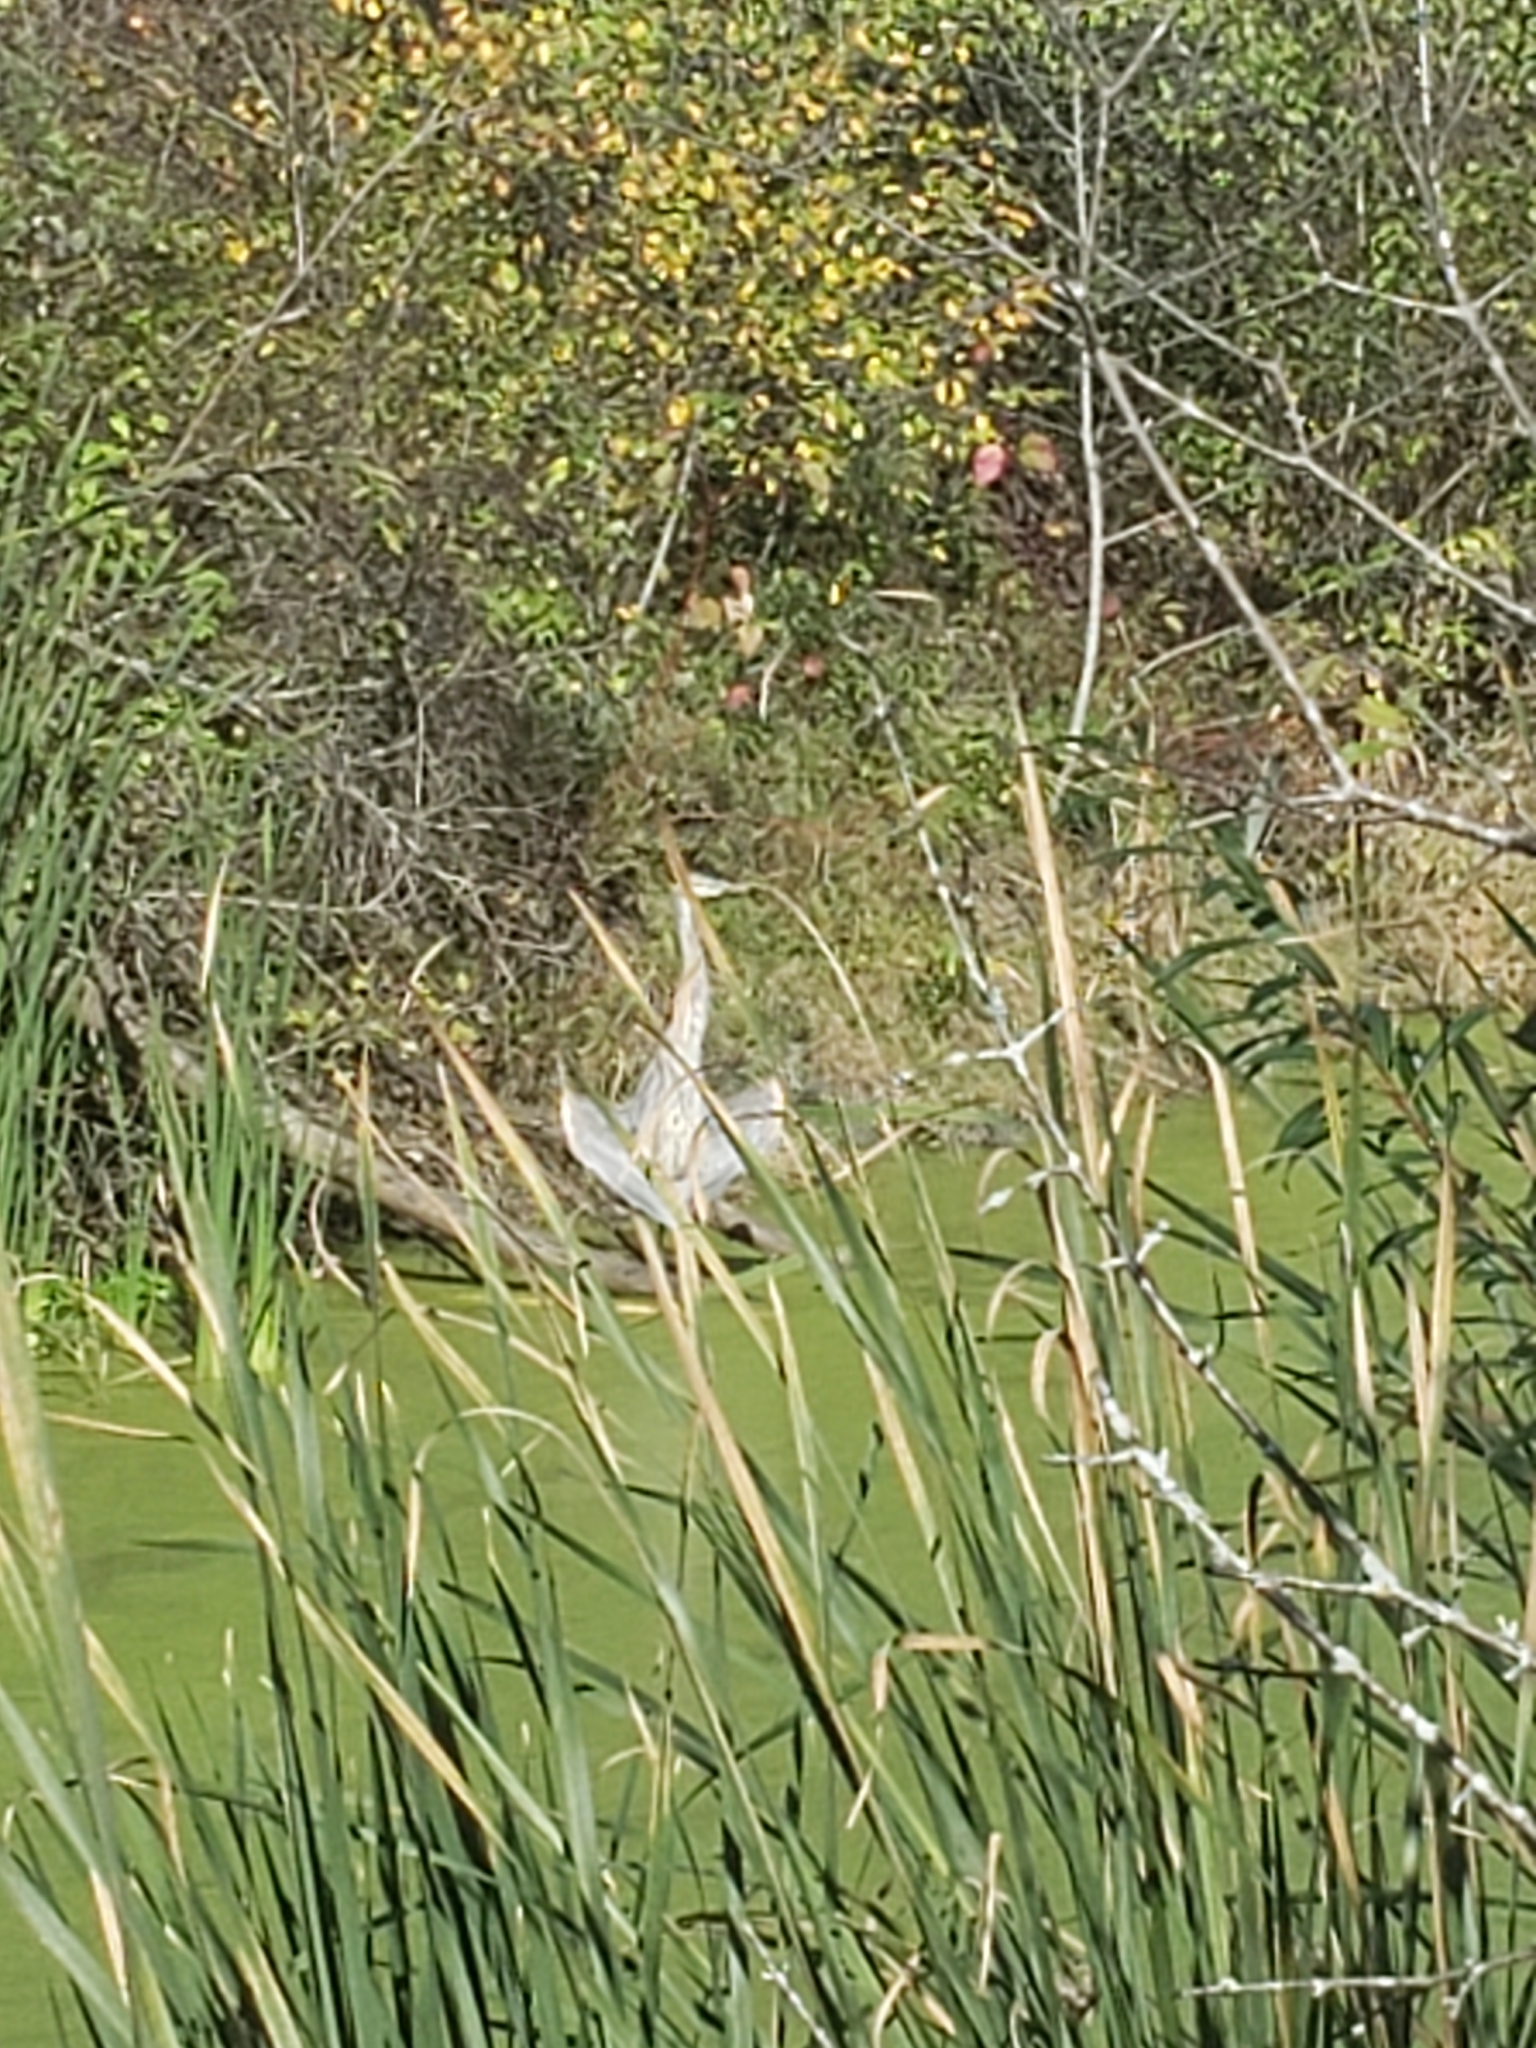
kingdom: Animalia
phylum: Chordata
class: Aves
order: Pelecaniformes
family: Ardeidae
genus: Ardea
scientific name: Ardea herodias
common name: Great blue heron
